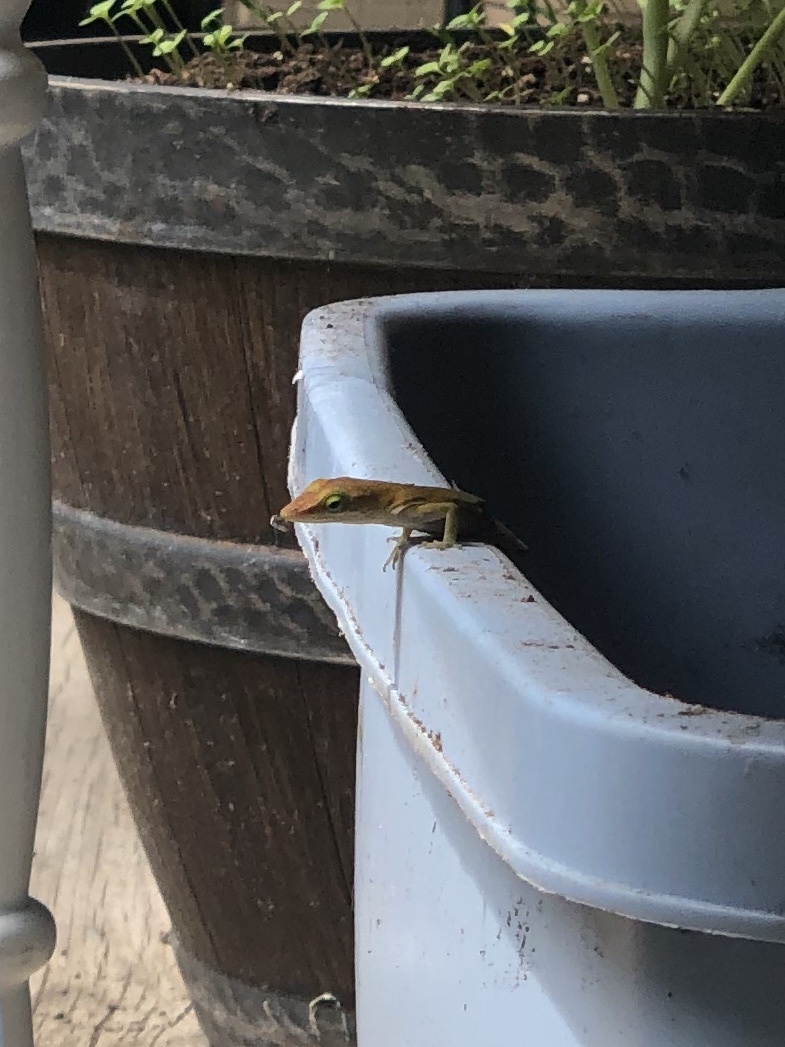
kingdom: Animalia
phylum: Chordata
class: Squamata
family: Dactyloidae
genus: Anolis
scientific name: Anolis carolinensis
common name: Green anole
